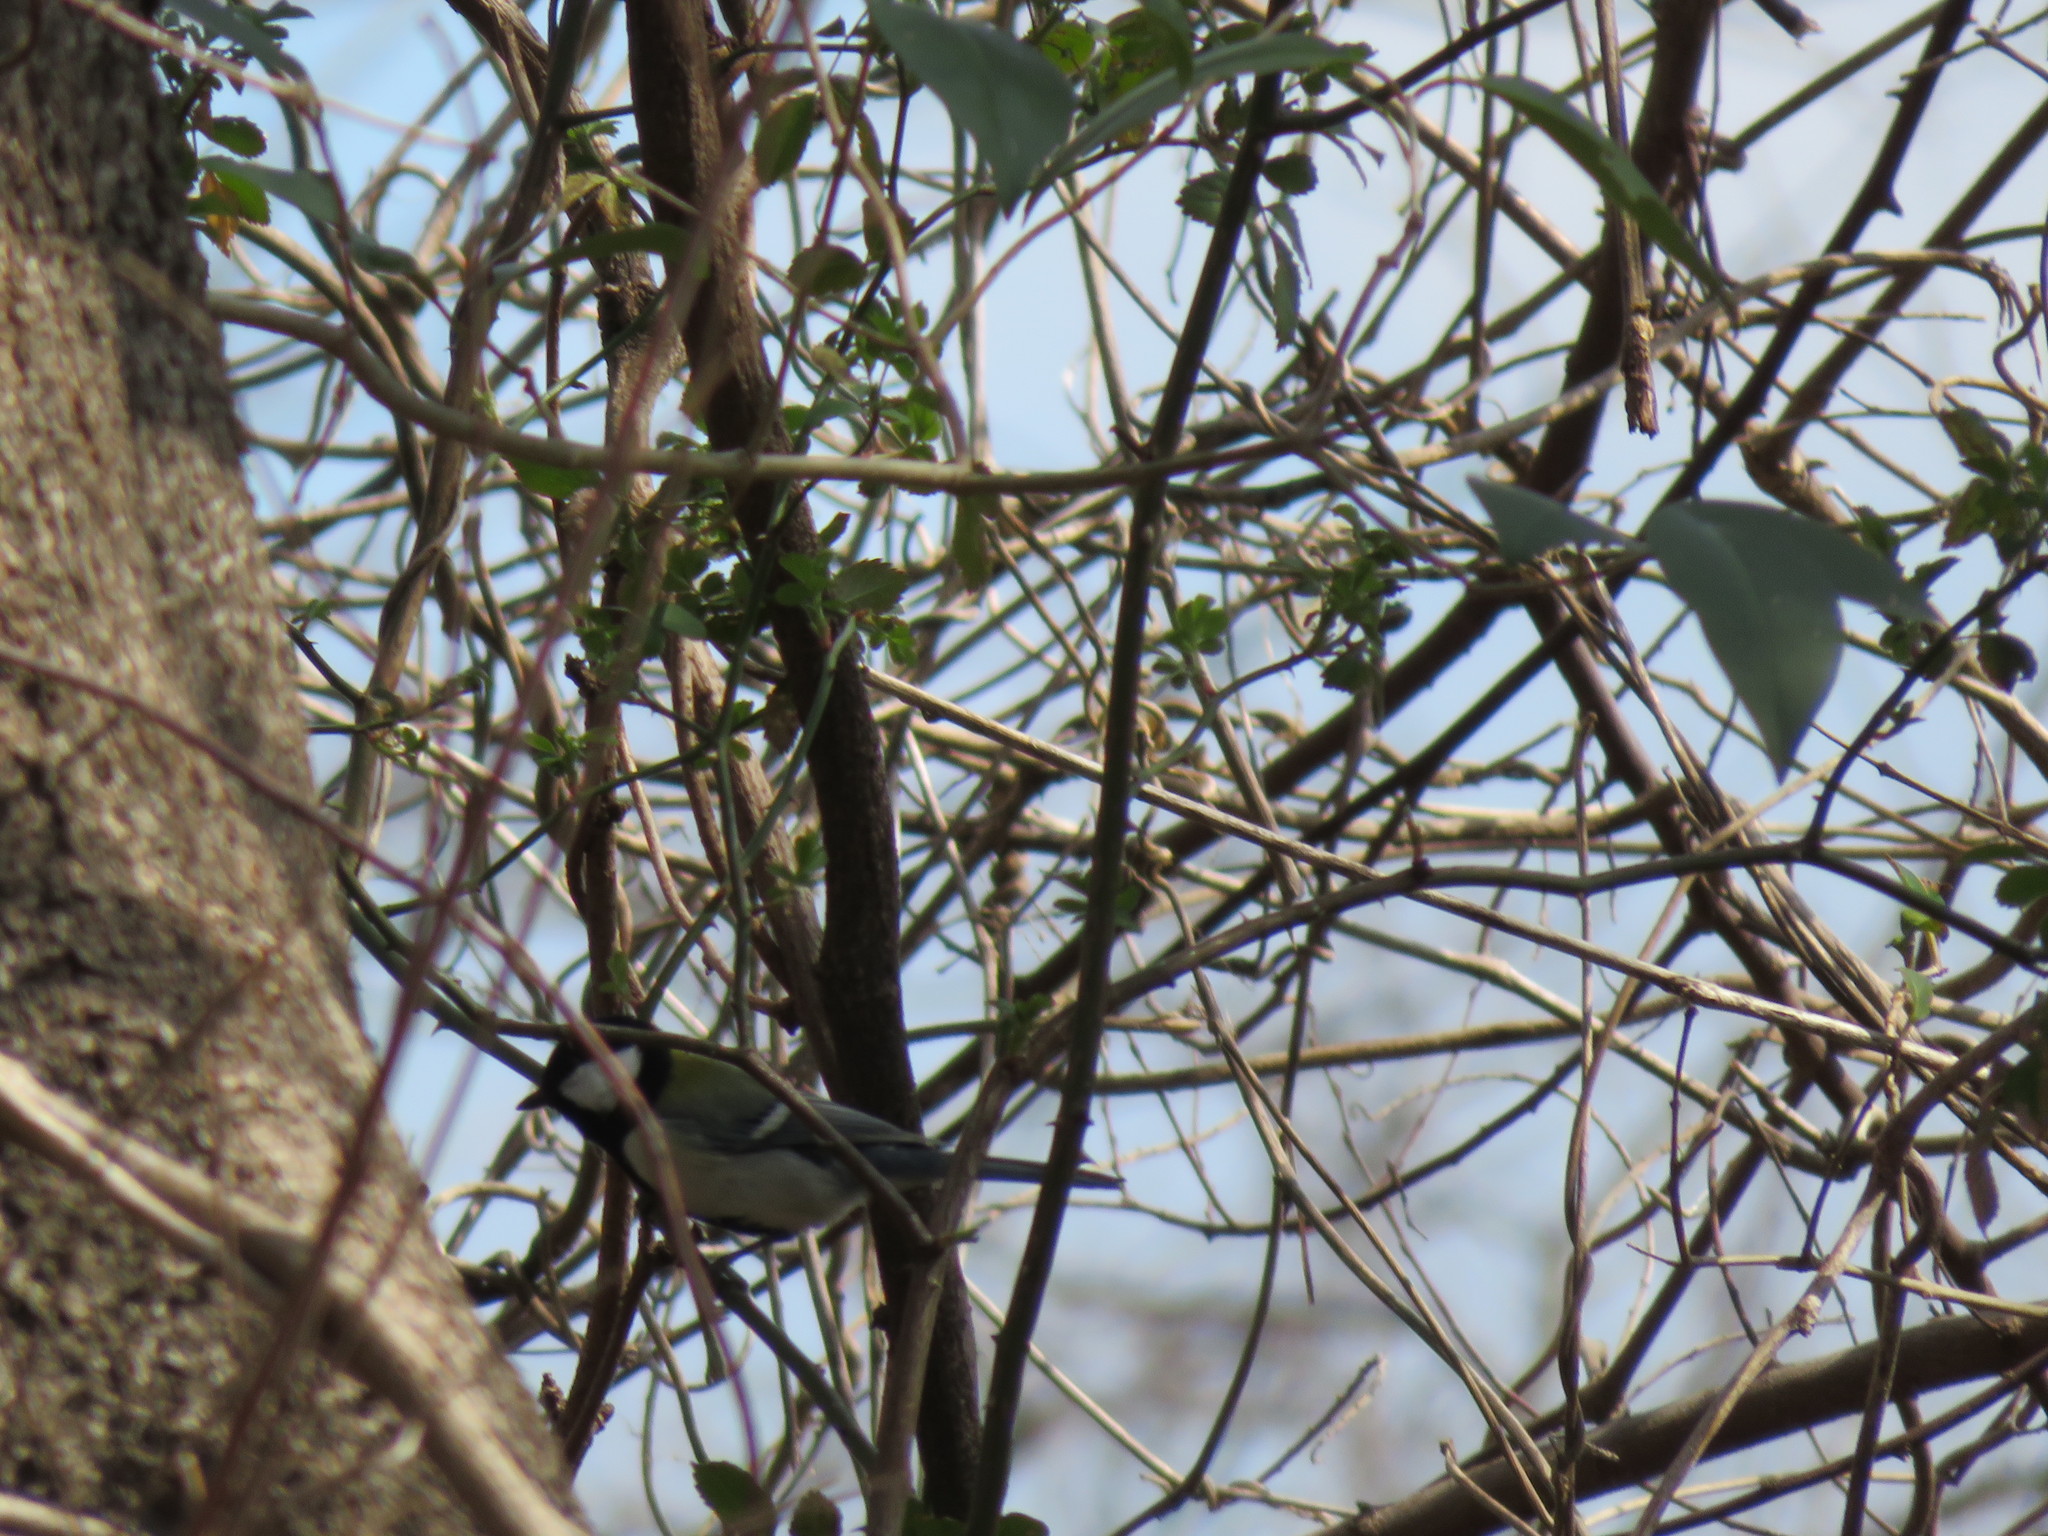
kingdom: Animalia
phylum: Chordata
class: Aves
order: Passeriformes
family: Paridae
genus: Parus
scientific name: Parus minor
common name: Japanese tit
